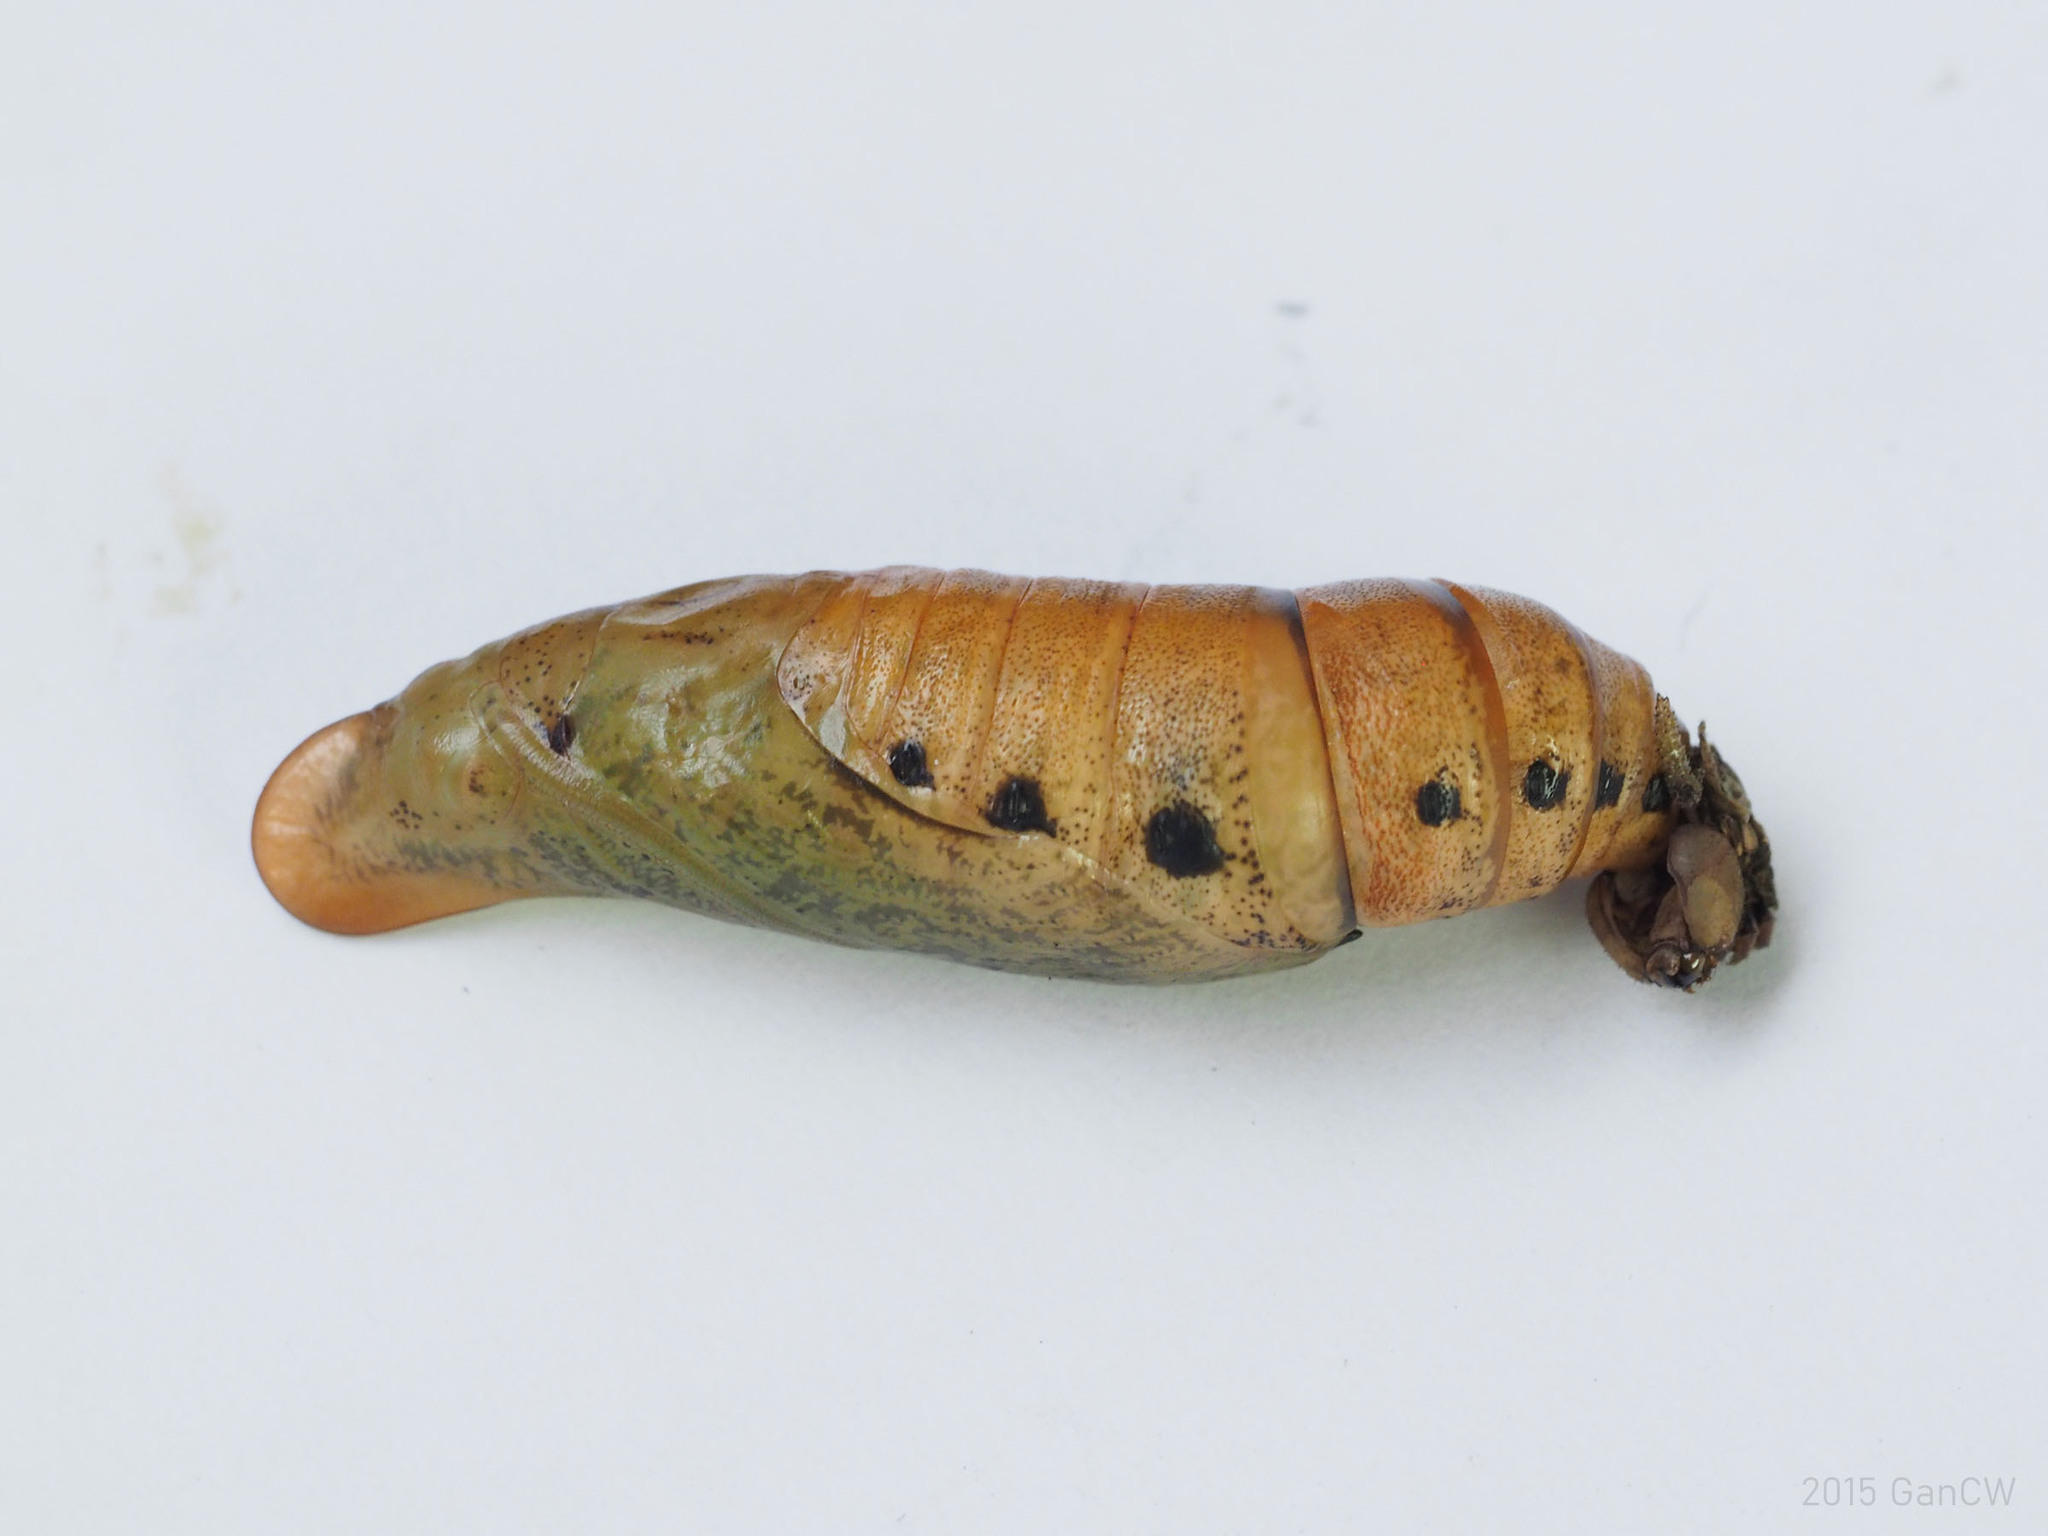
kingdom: Animalia
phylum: Arthropoda
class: Insecta
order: Lepidoptera
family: Sphingidae
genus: Macroglossum
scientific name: Macroglossum sitiene
